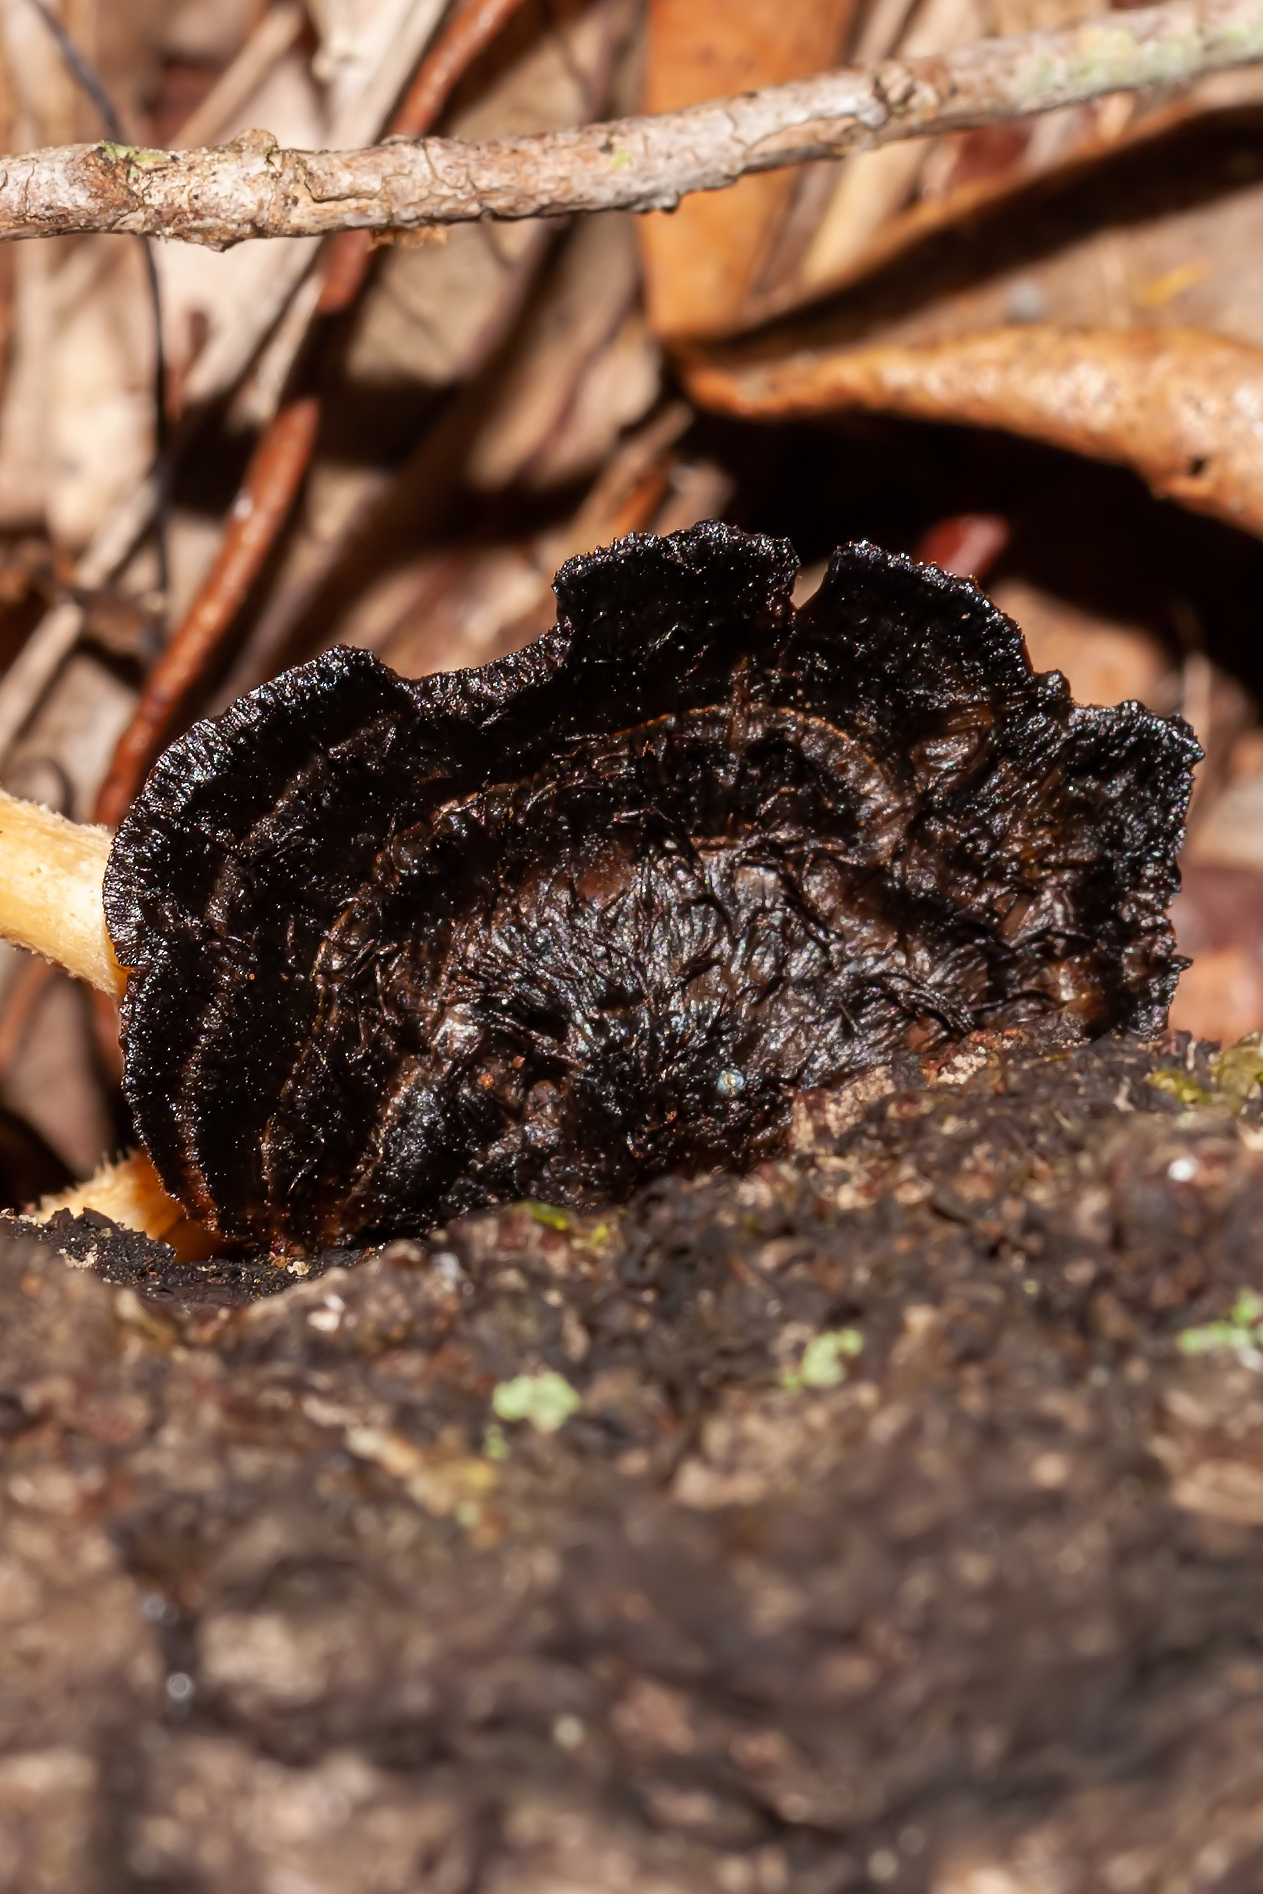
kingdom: Fungi
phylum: Basidiomycota
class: Agaricomycetes
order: Polyporales
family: Cerrenaceae
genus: Cerrena
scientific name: Cerrena hydnoides
